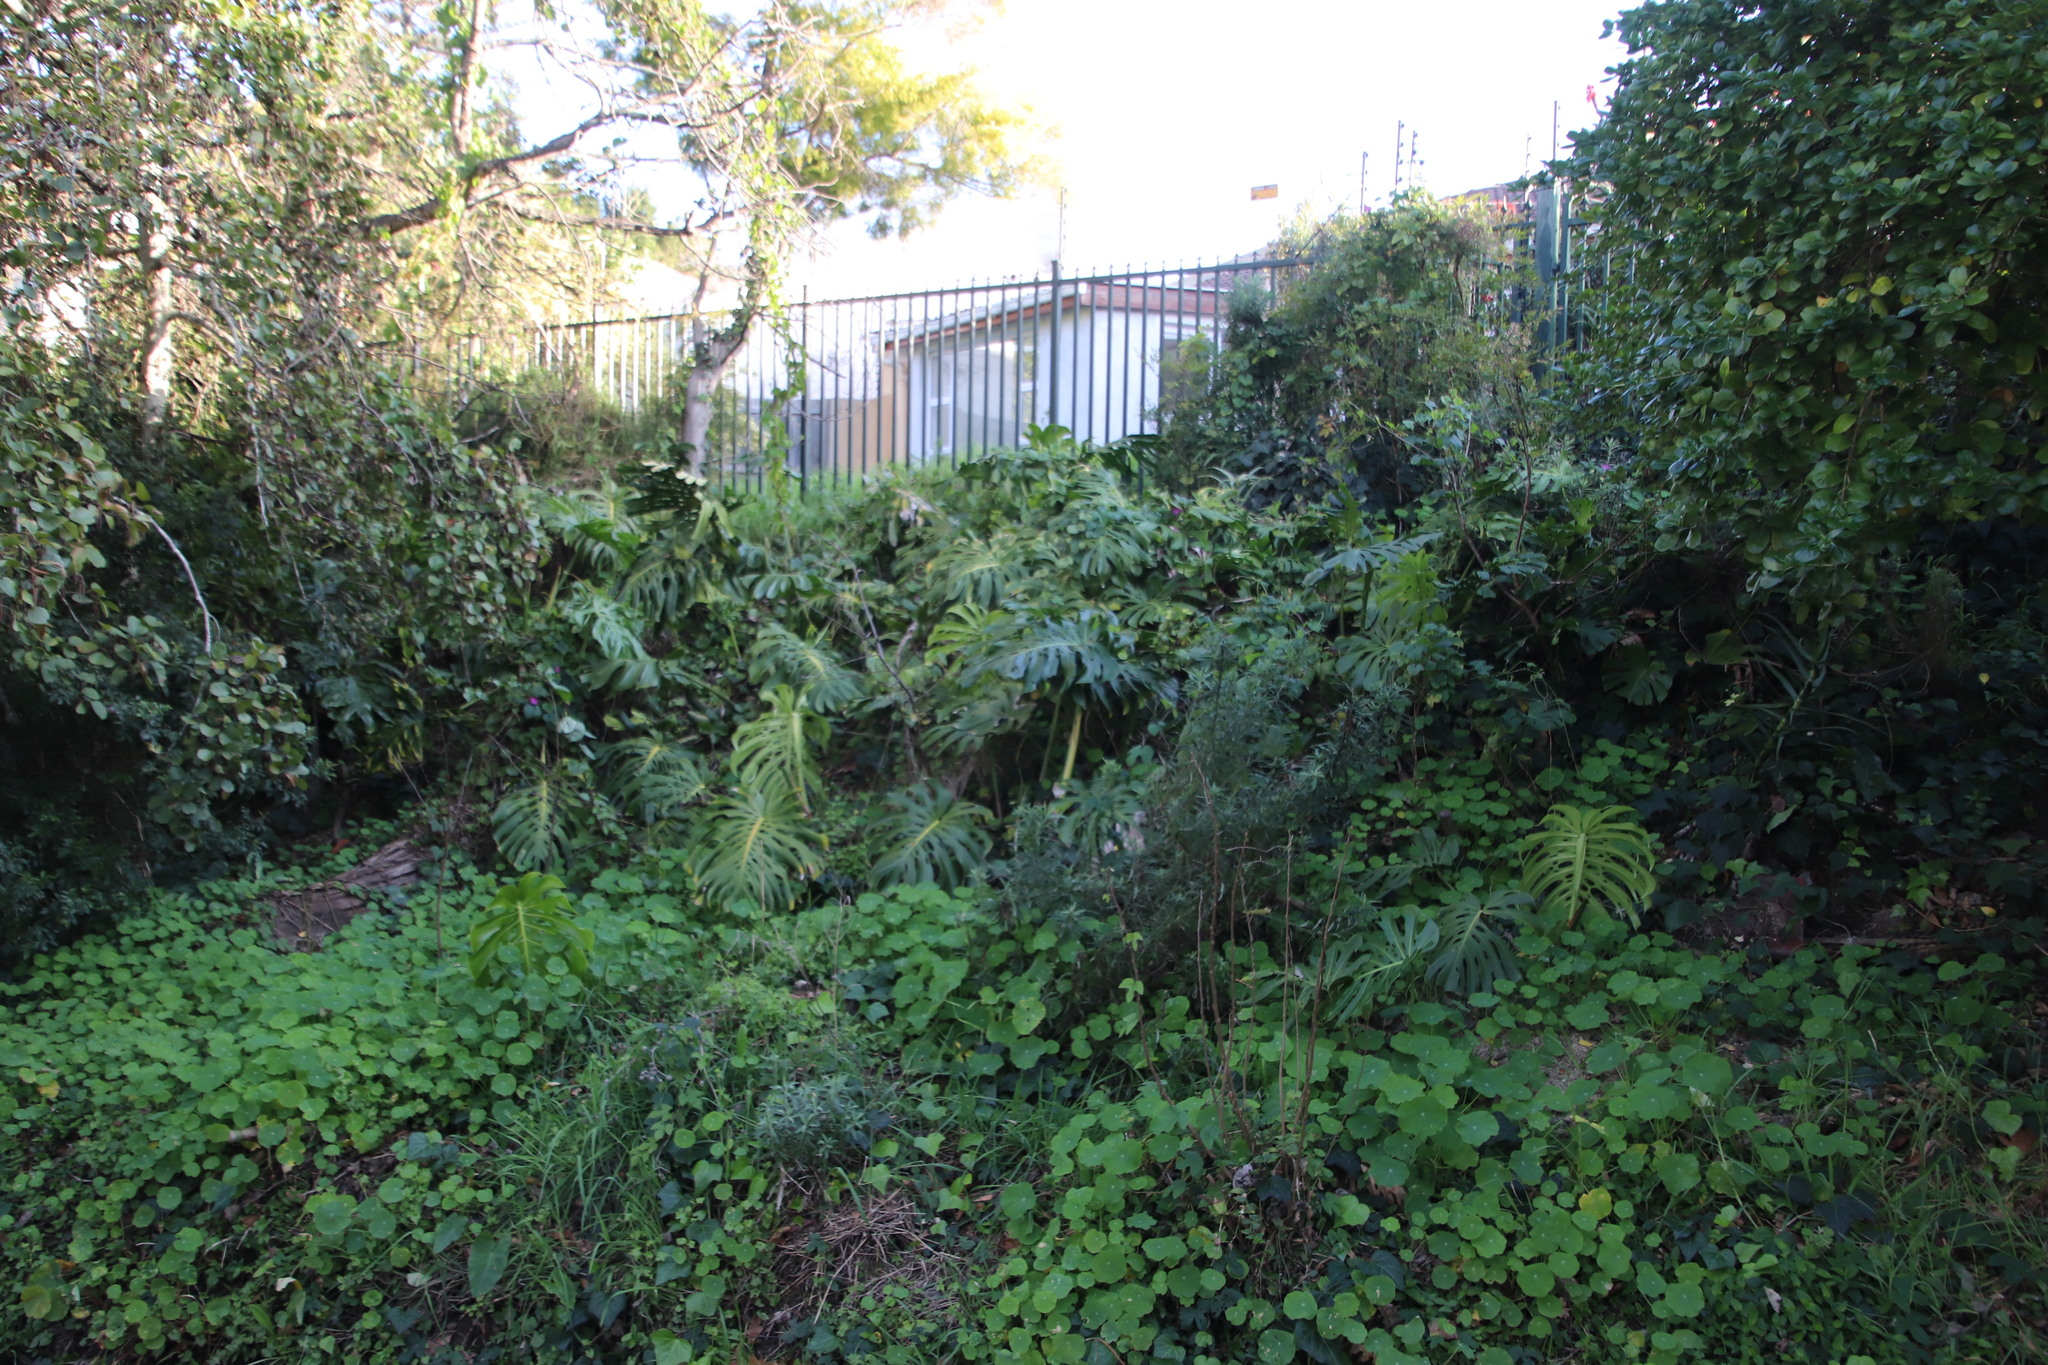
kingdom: Plantae
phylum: Tracheophyta
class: Liliopsida
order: Alismatales
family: Araceae
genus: Monstera
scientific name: Monstera deliciosa
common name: Cut-leaf-philodendron
